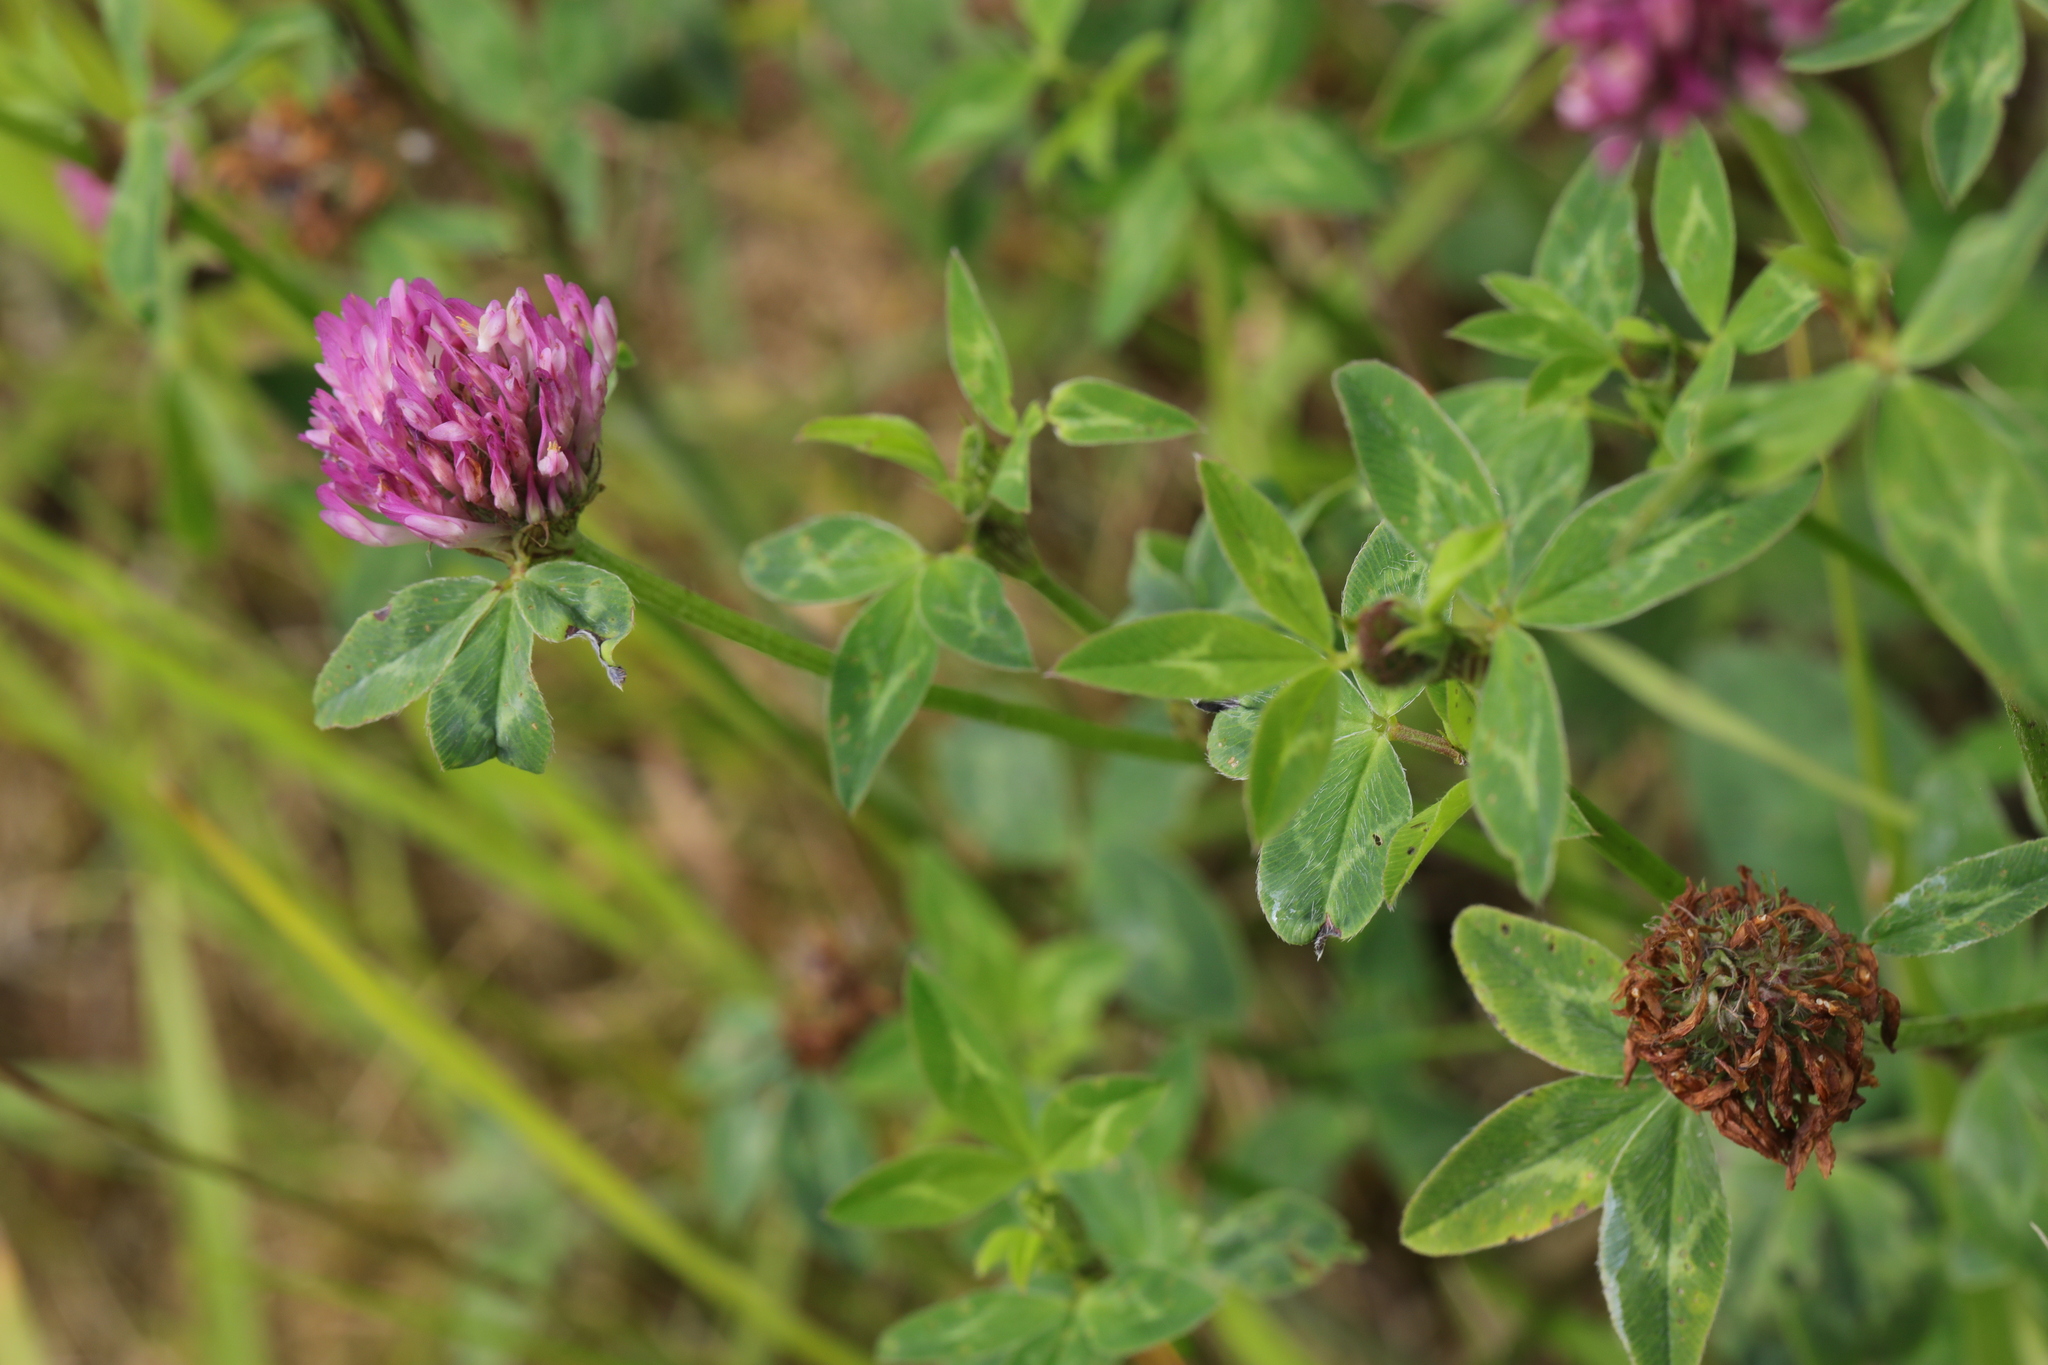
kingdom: Plantae
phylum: Tracheophyta
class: Magnoliopsida
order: Fabales
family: Fabaceae
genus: Trifolium
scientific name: Trifolium pratense
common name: Red clover
